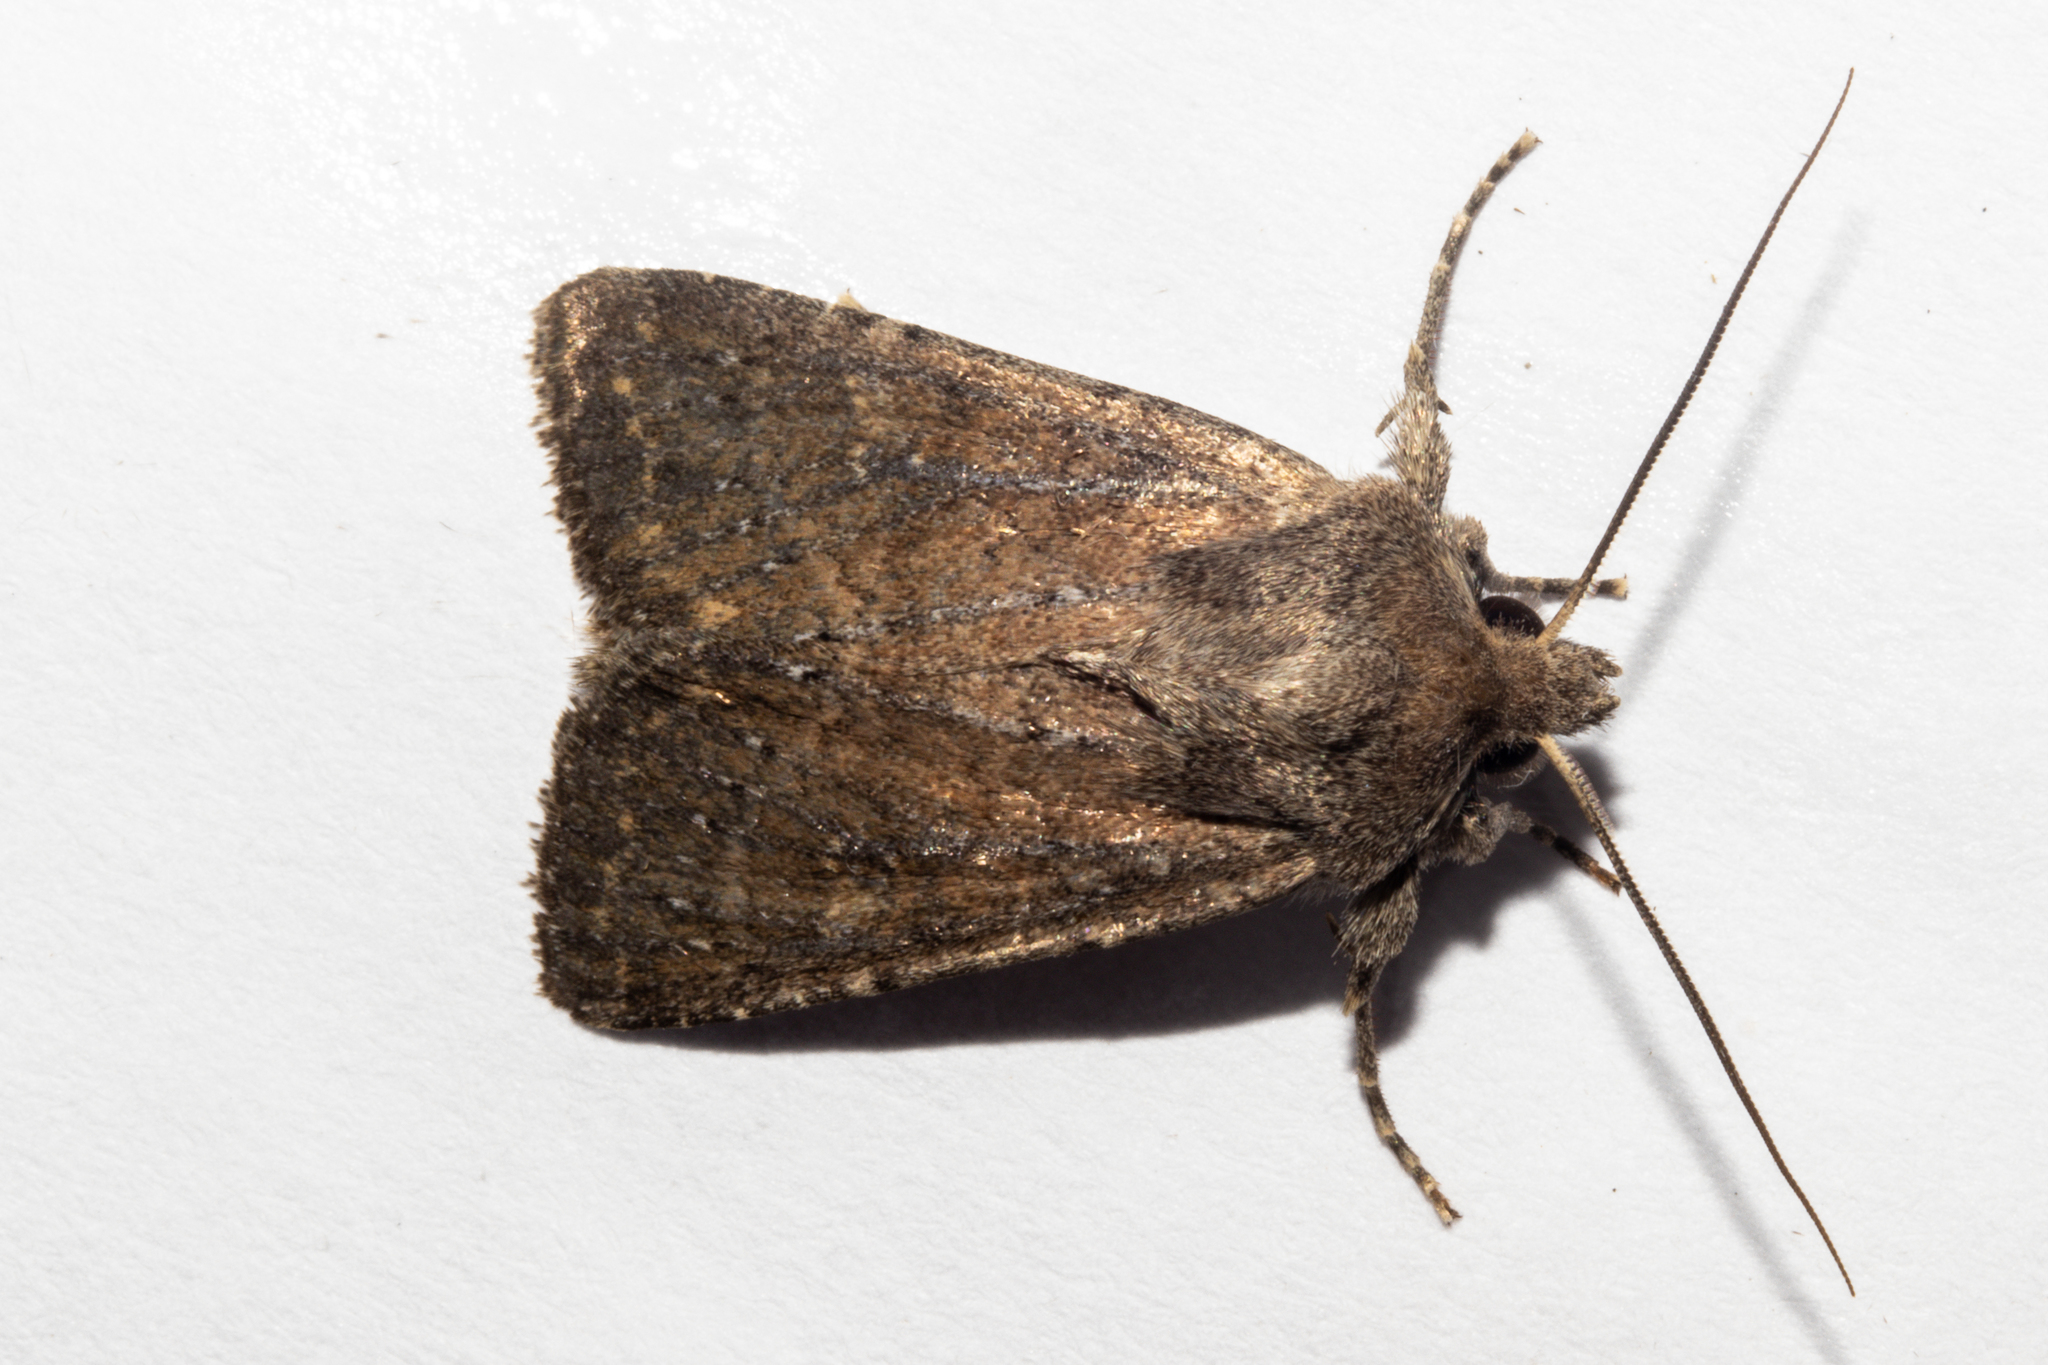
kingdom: Animalia
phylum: Arthropoda
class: Insecta
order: Lepidoptera
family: Noctuidae
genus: Physetica
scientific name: Physetica
